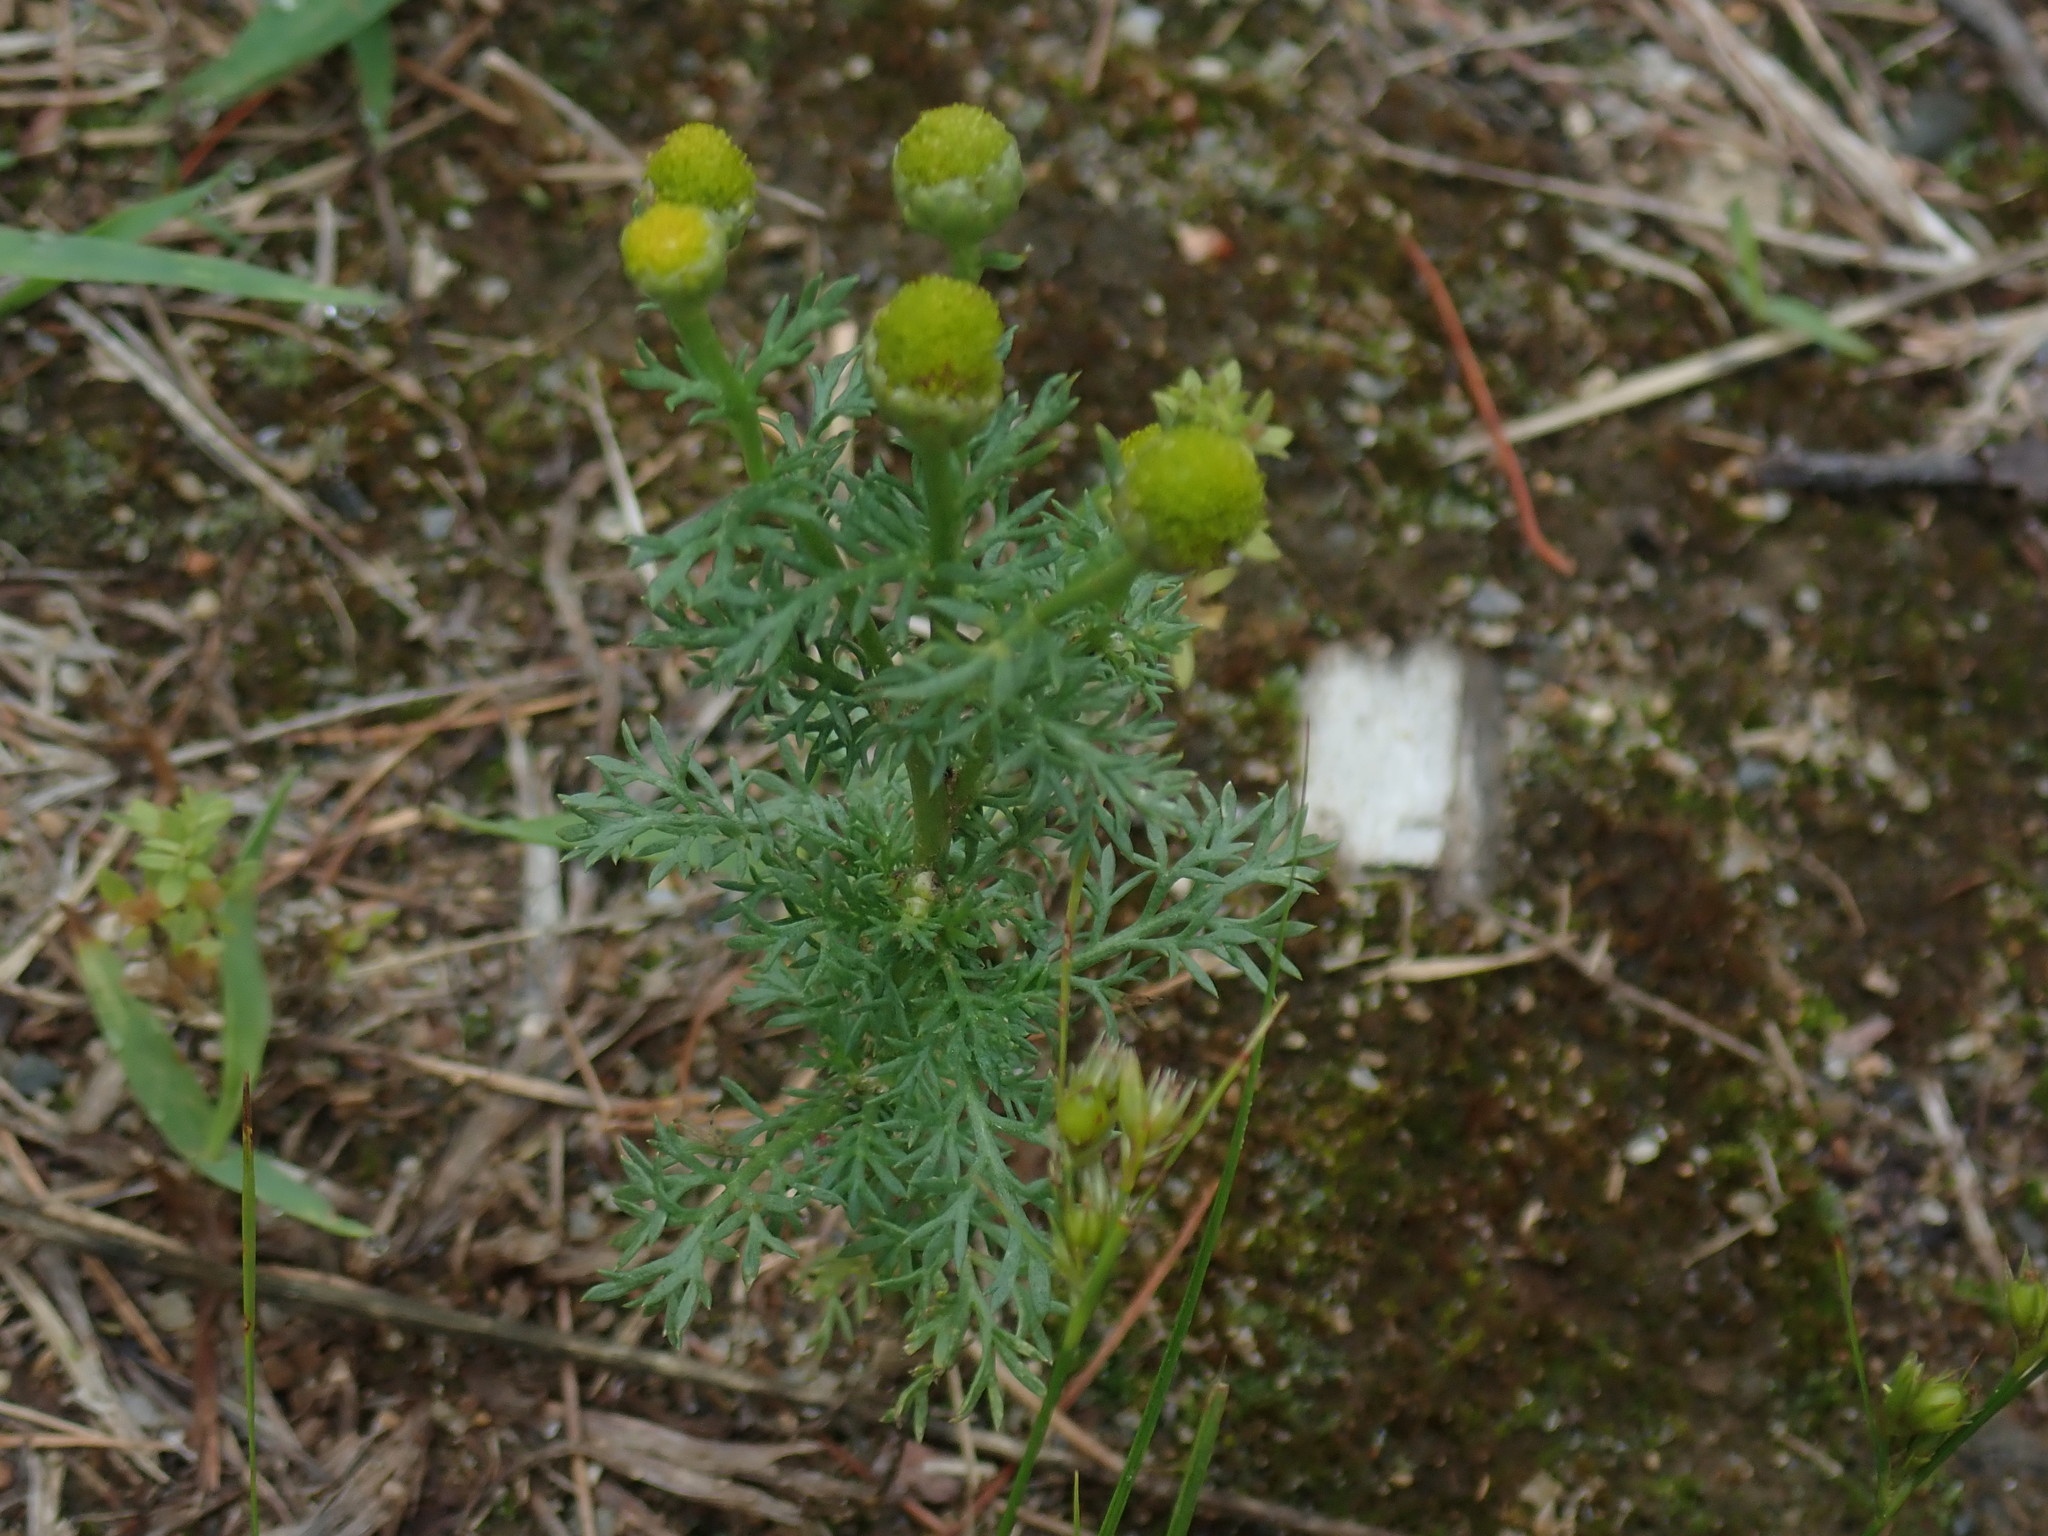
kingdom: Plantae
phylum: Tracheophyta
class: Magnoliopsida
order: Asterales
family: Asteraceae
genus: Matricaria
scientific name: Matricaria discoidea
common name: Disc mayweed
